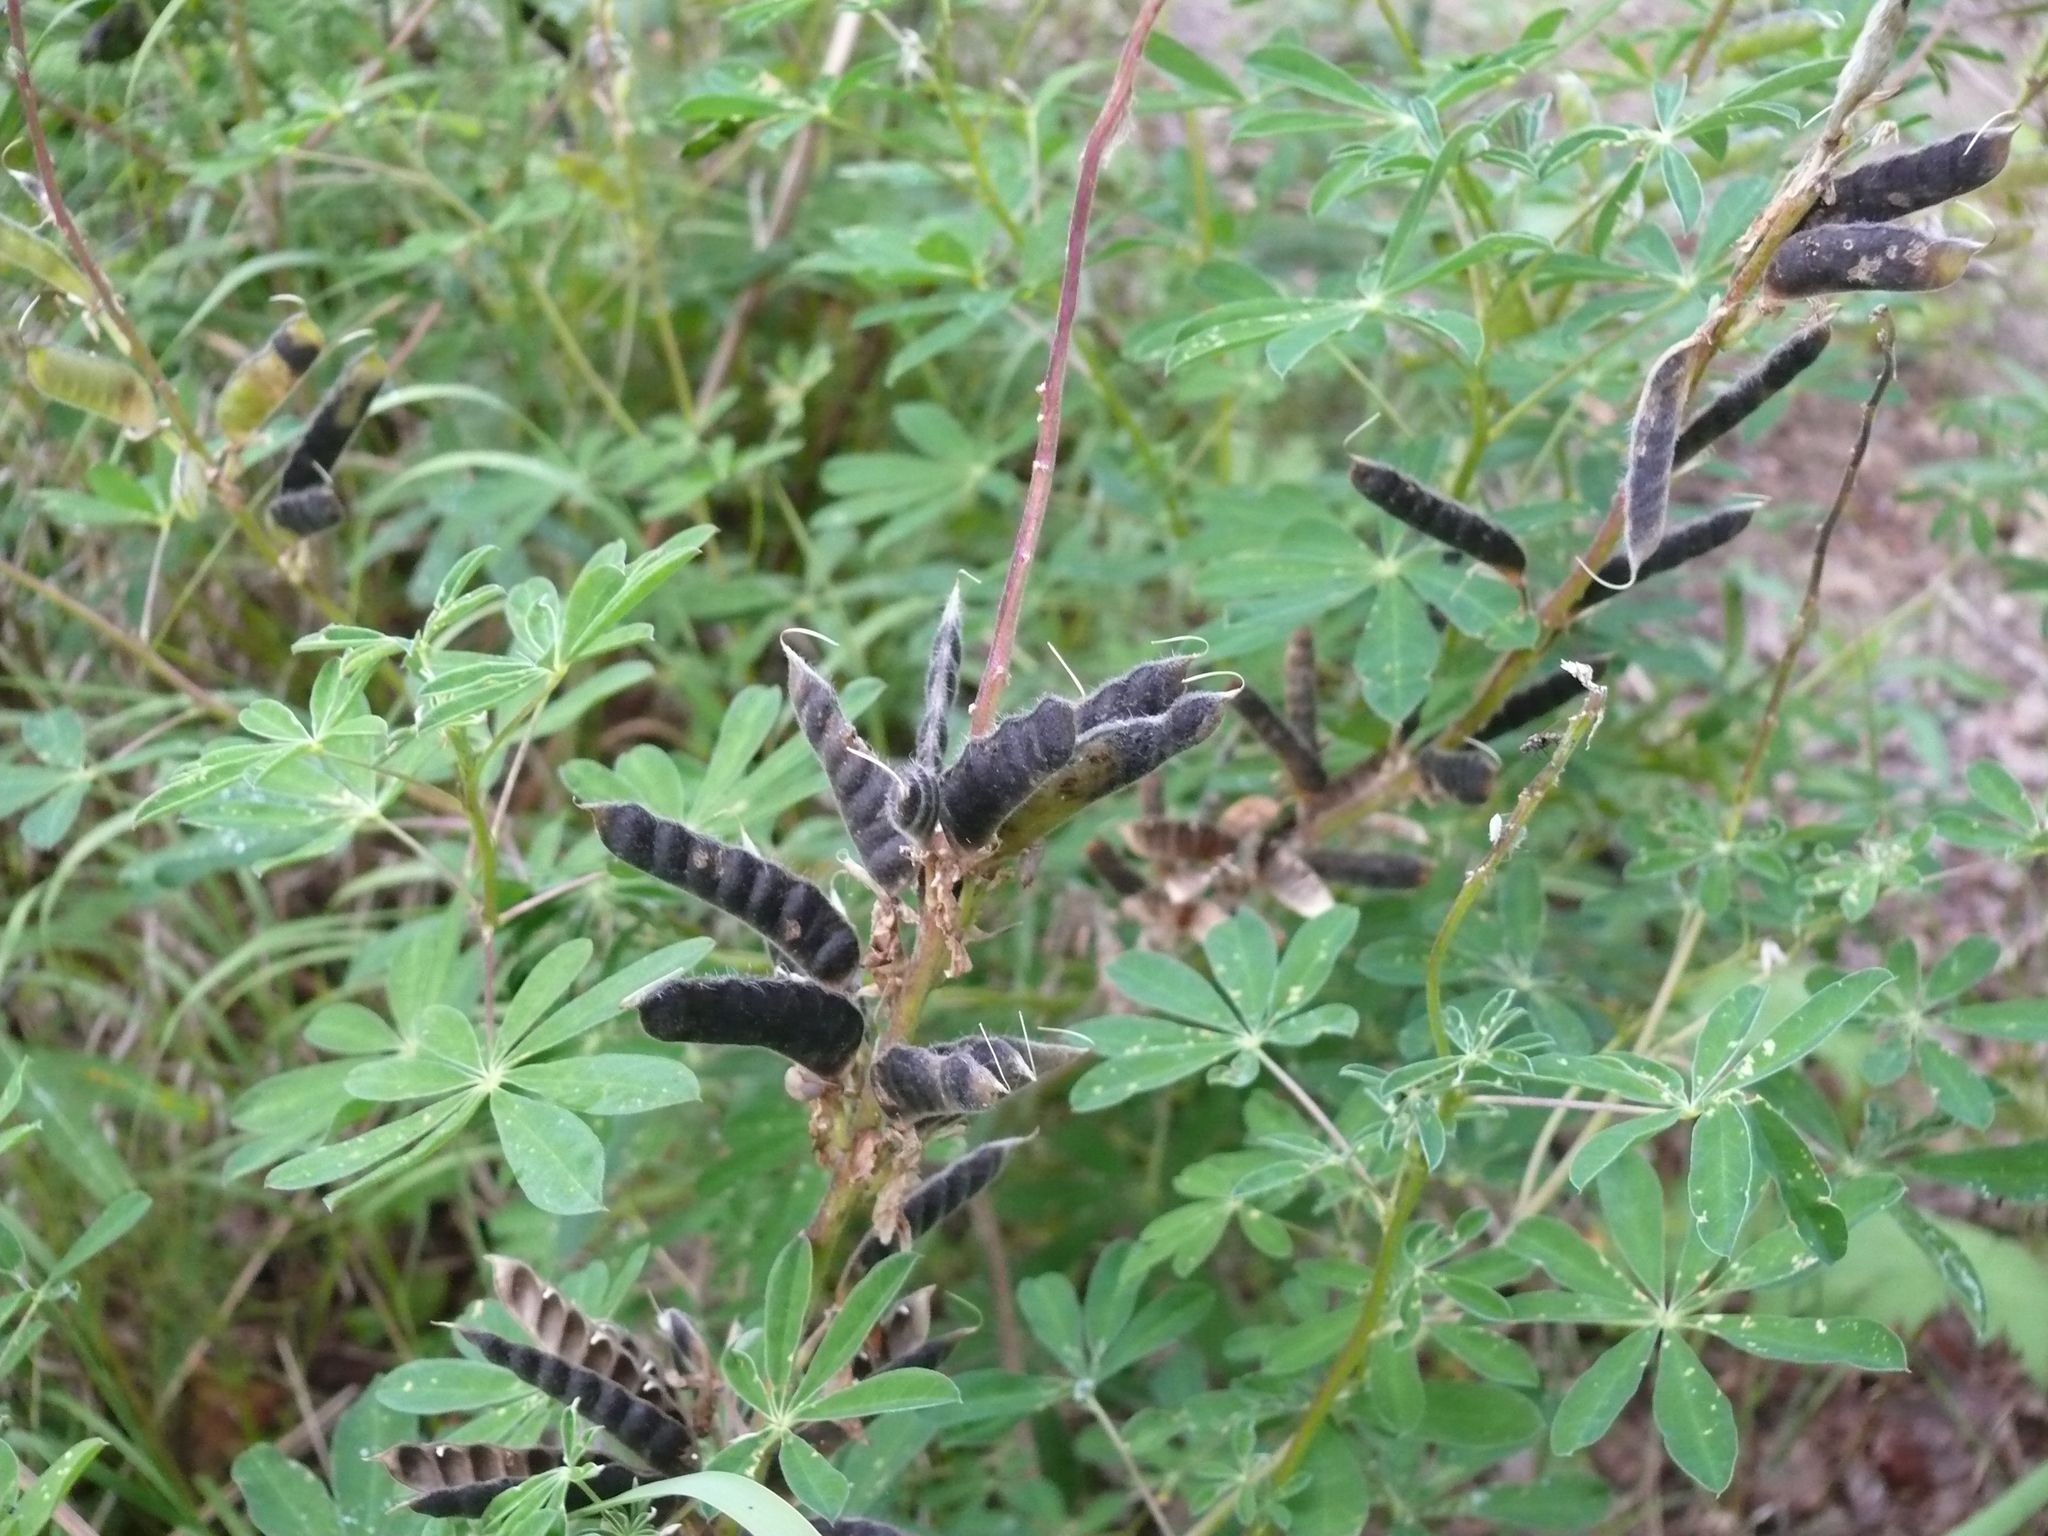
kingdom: Plantae
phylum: Tracheophyta
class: Magnoliopsida
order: Fabales
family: Fabaceae
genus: Lupinus
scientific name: Lupinus nootkatensis
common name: Nootka lupine
